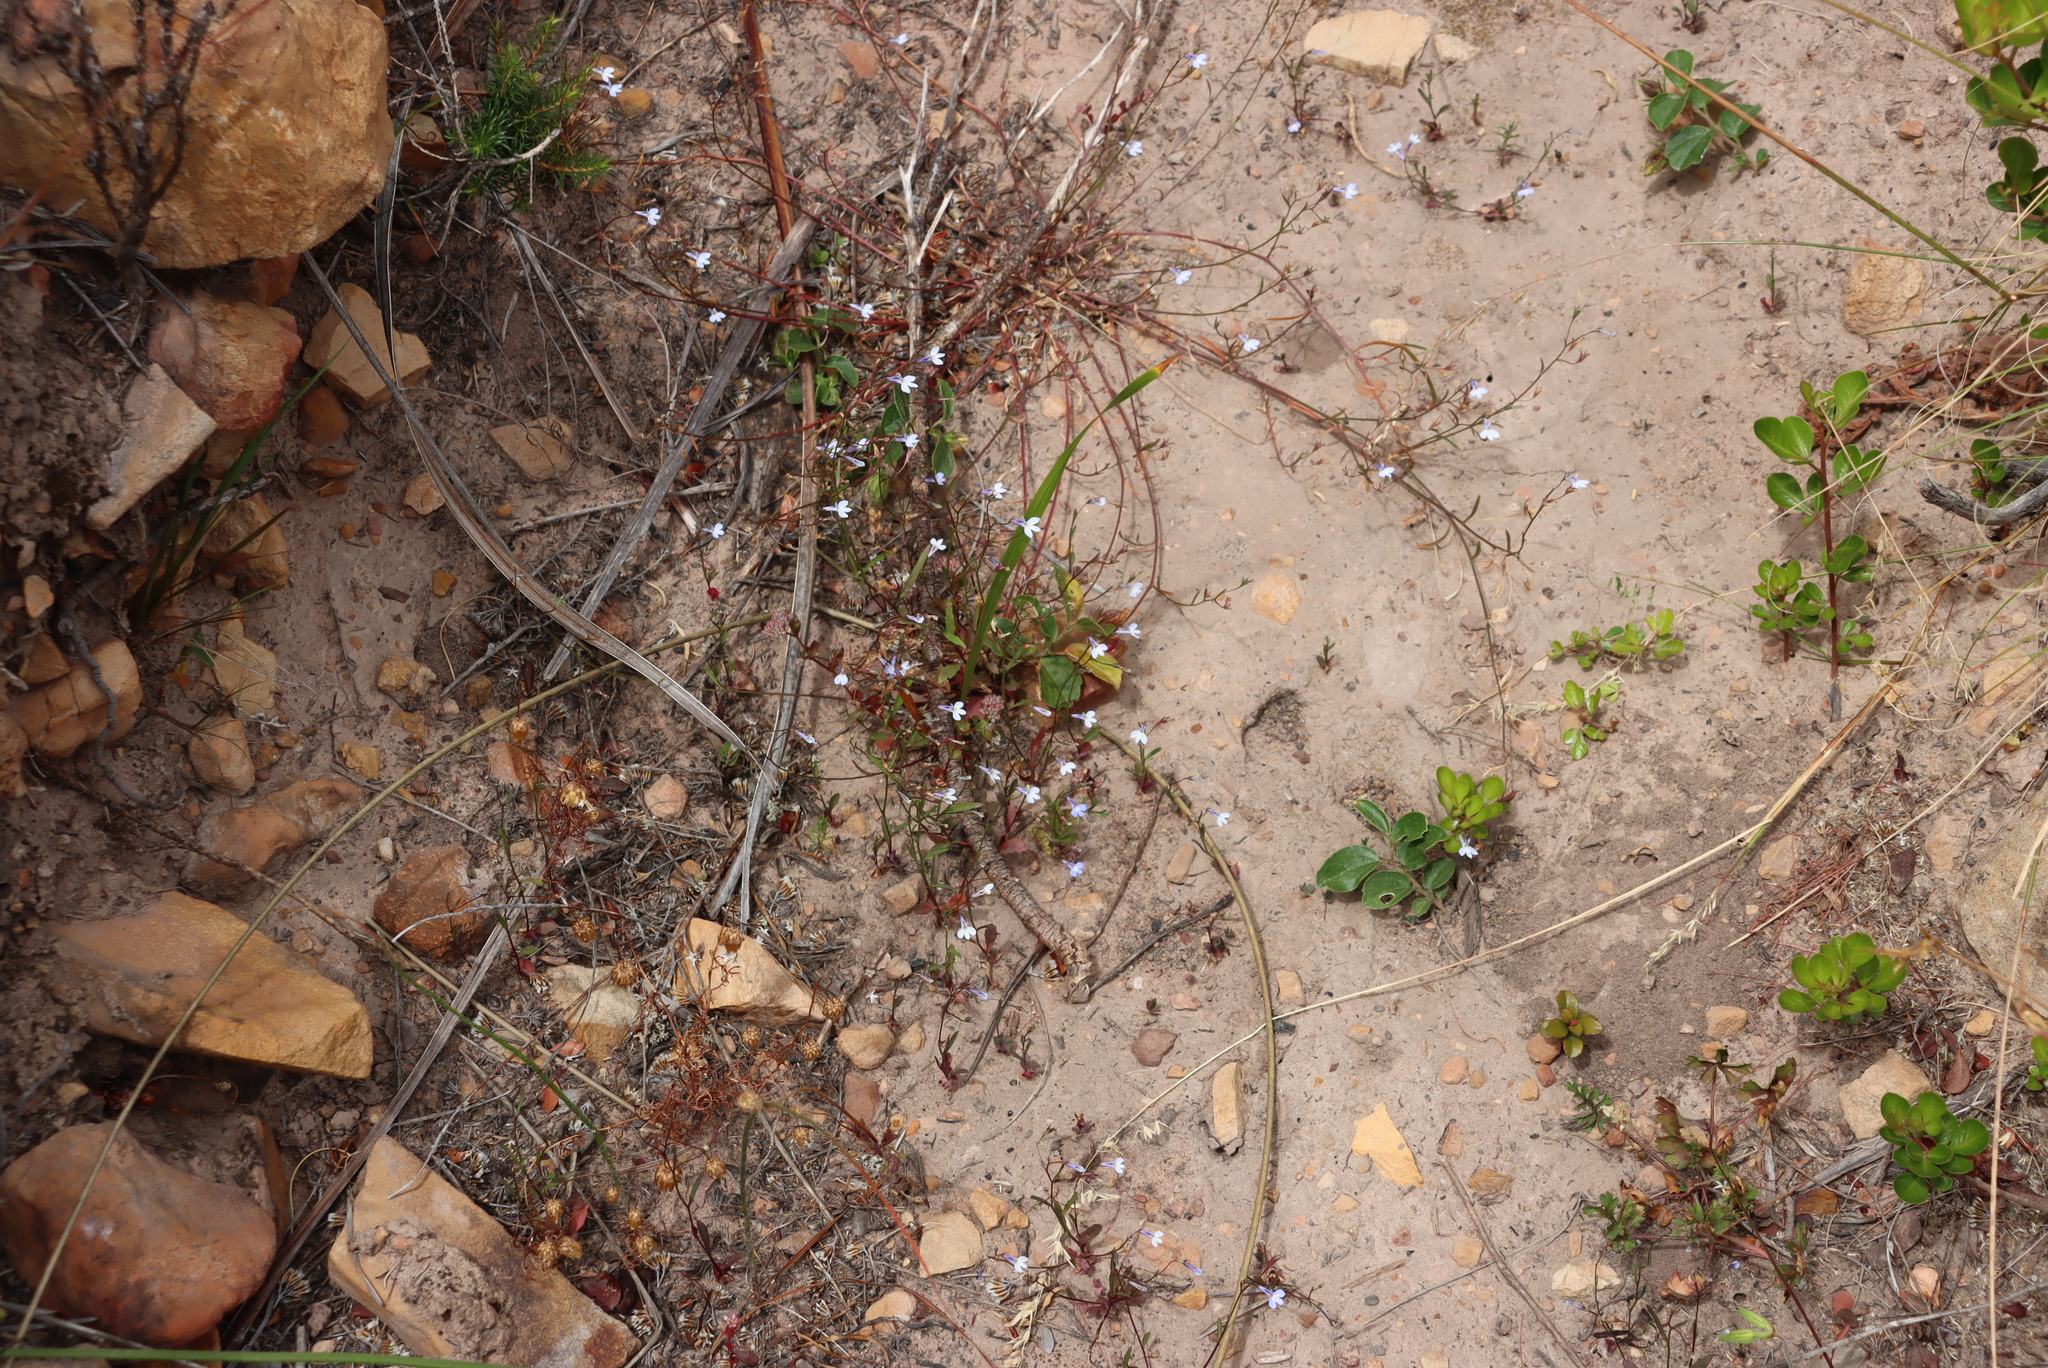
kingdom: Plantae
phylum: Tracheophyta
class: Magnoliopsida
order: Asterales
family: Campanulaceae
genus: Lobelia
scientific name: Lobelia erinus
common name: Edging lobelia
